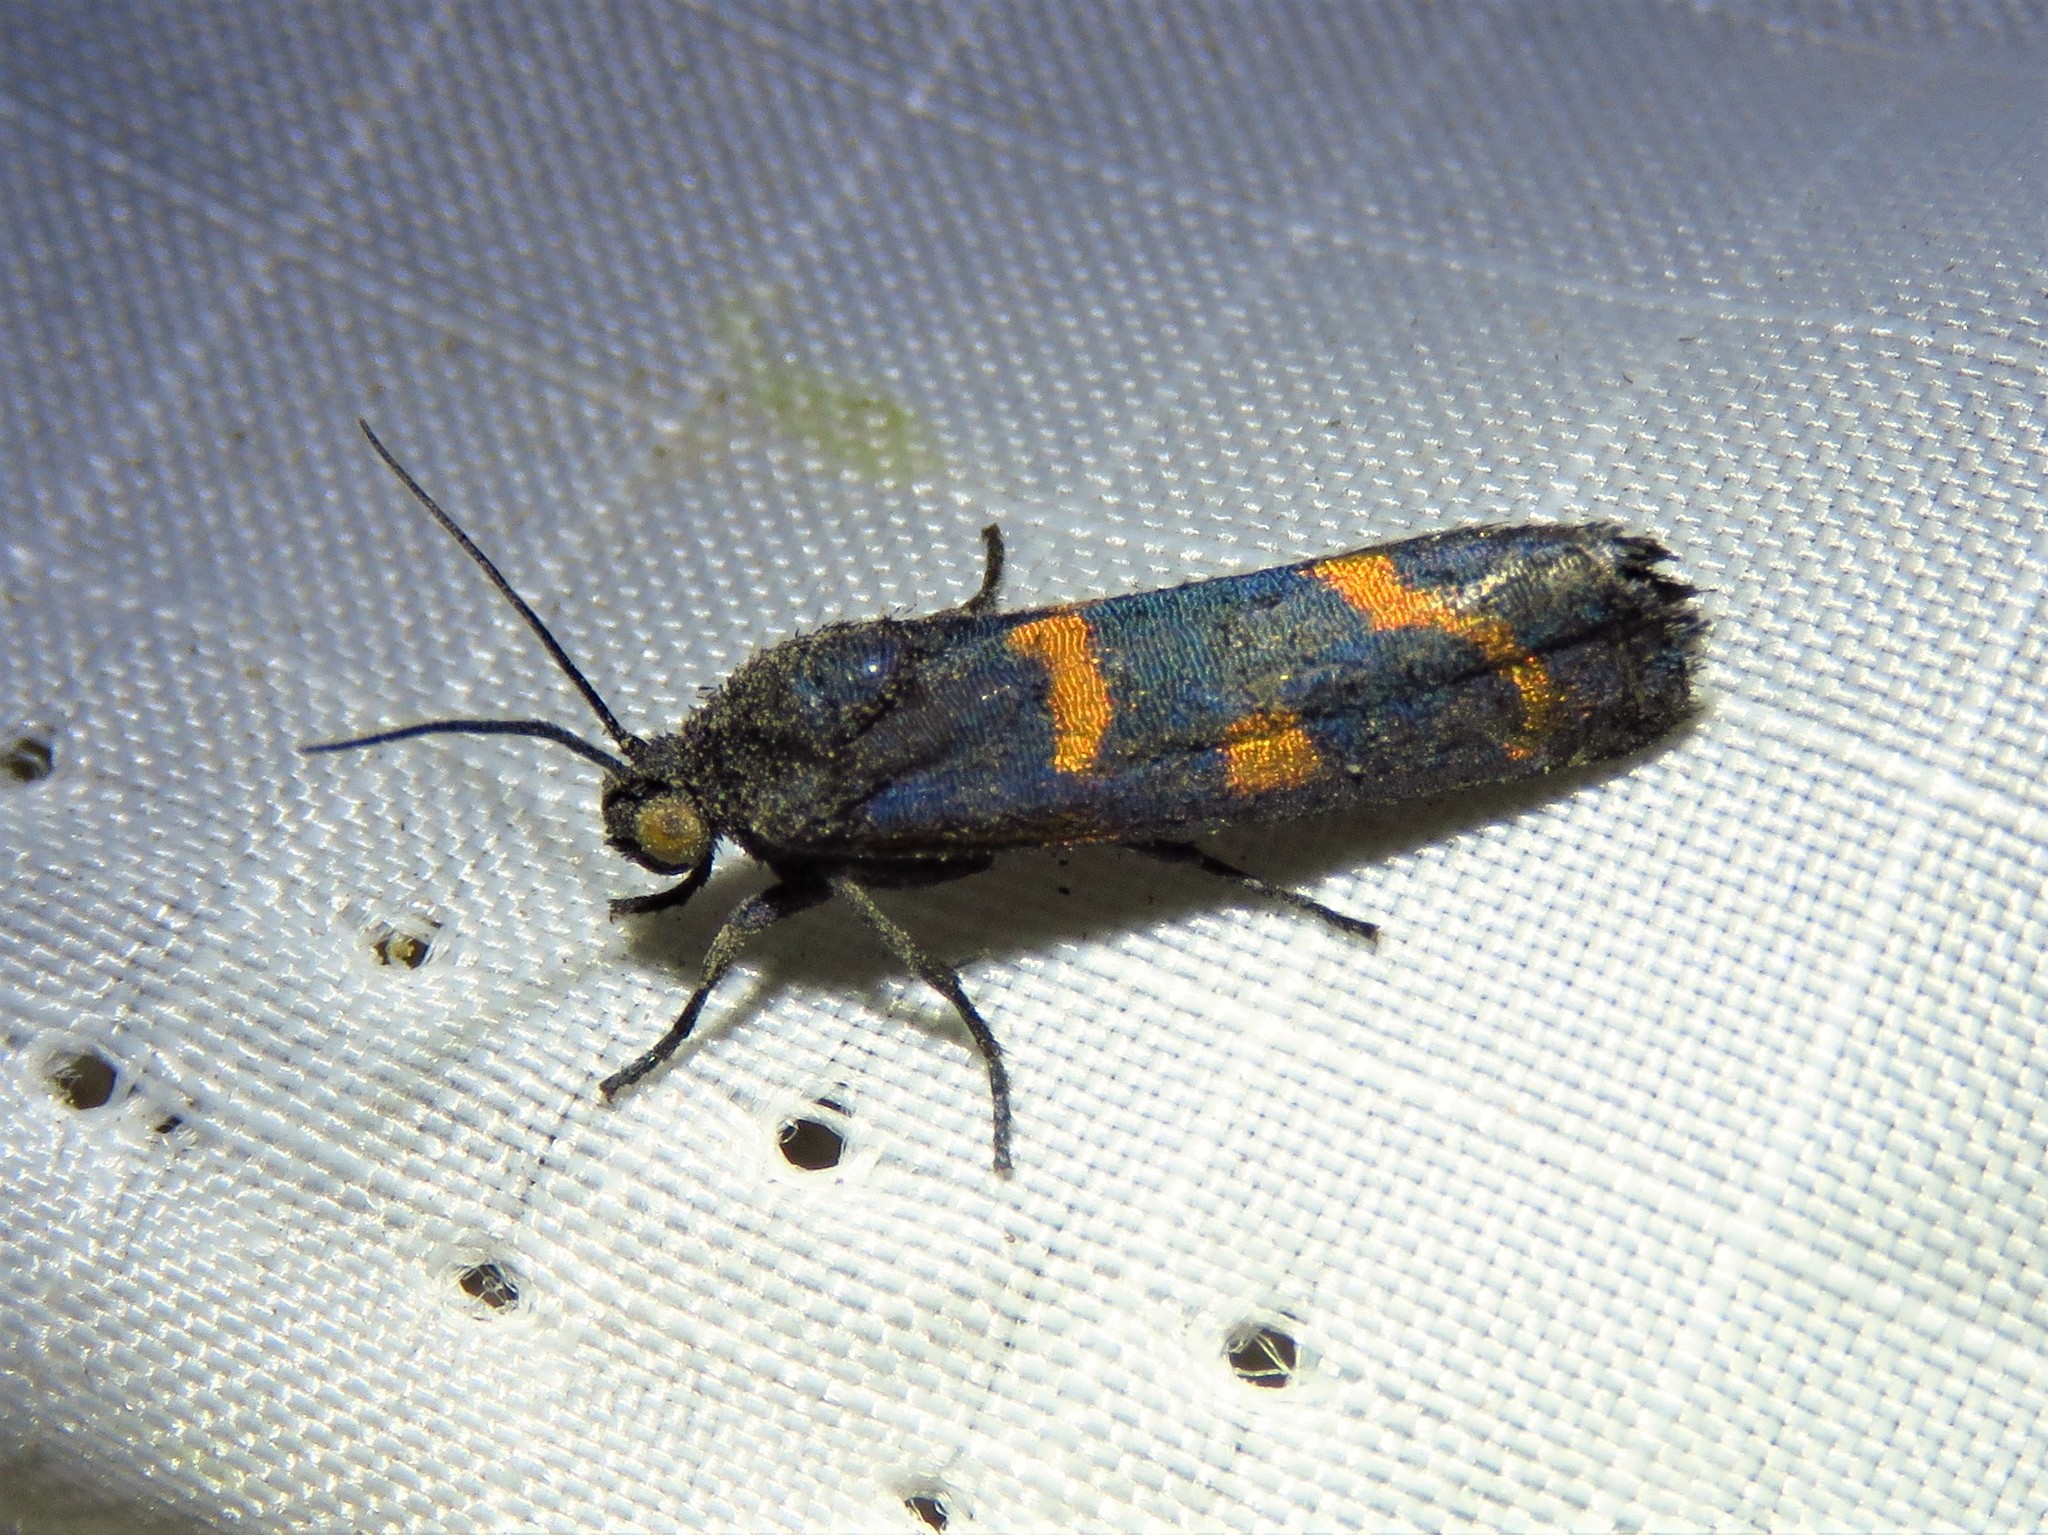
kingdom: Animalia
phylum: Arthropoda
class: Insecta
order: Lepidoptera
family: Noctuidae
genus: Cydosia
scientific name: Cydosia aurivitta
